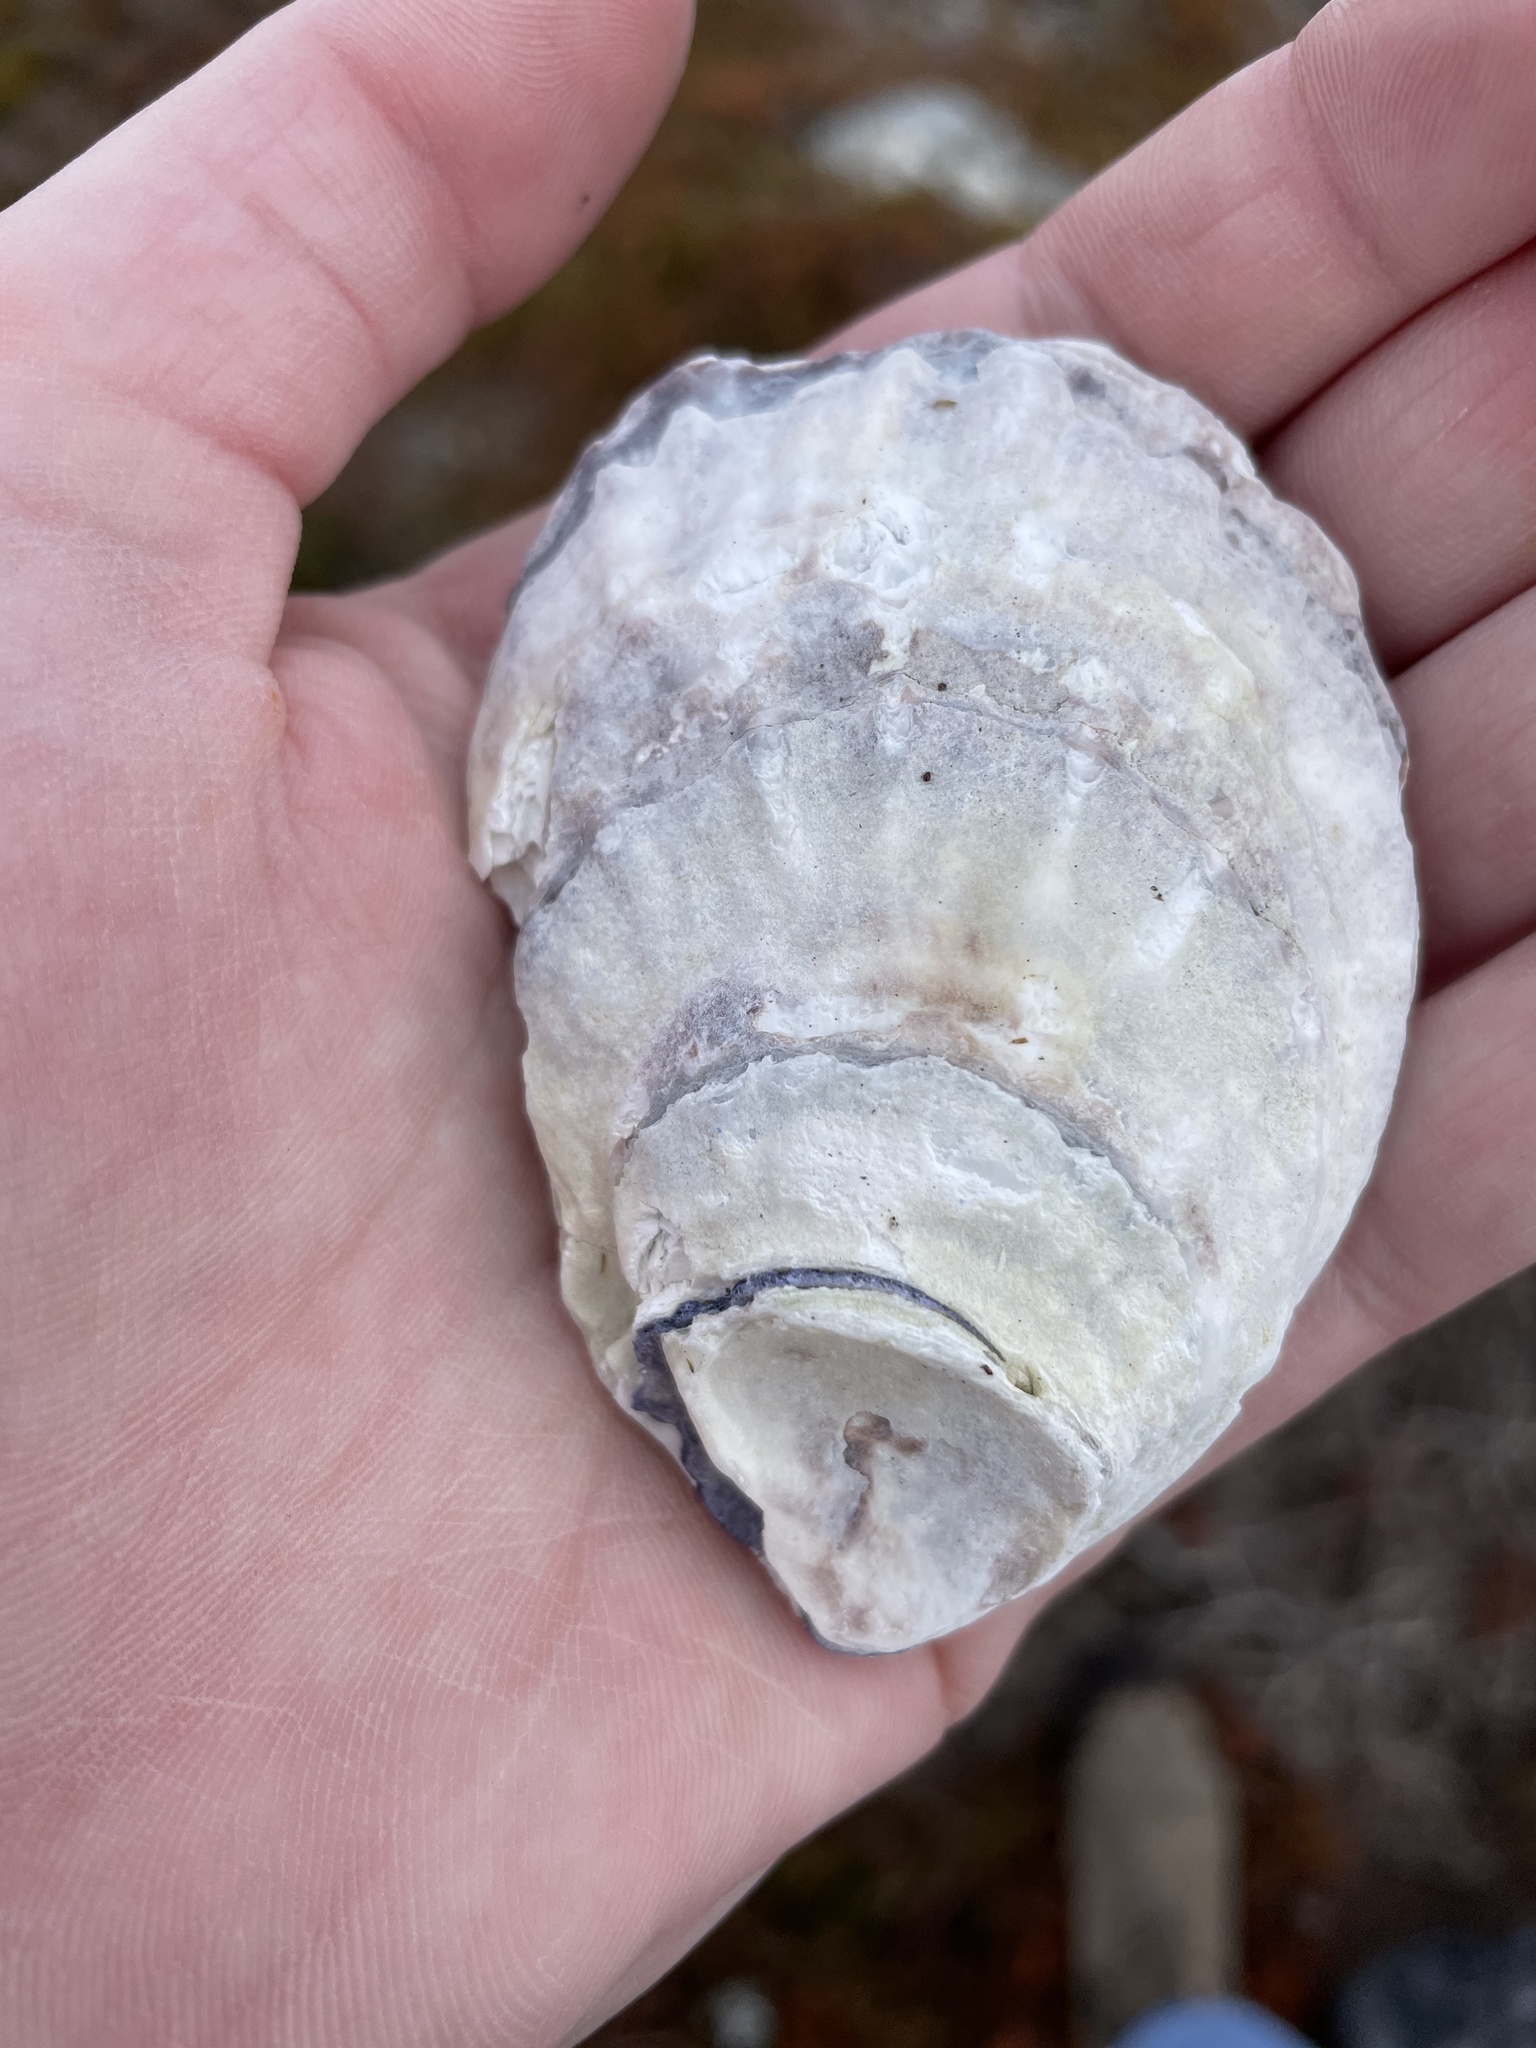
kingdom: Animalia
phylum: Mollusca
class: Bivalvia
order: Ostreida
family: Ostreidae
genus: Crassostrea
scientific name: Crassostrea virginica
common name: American oyster
